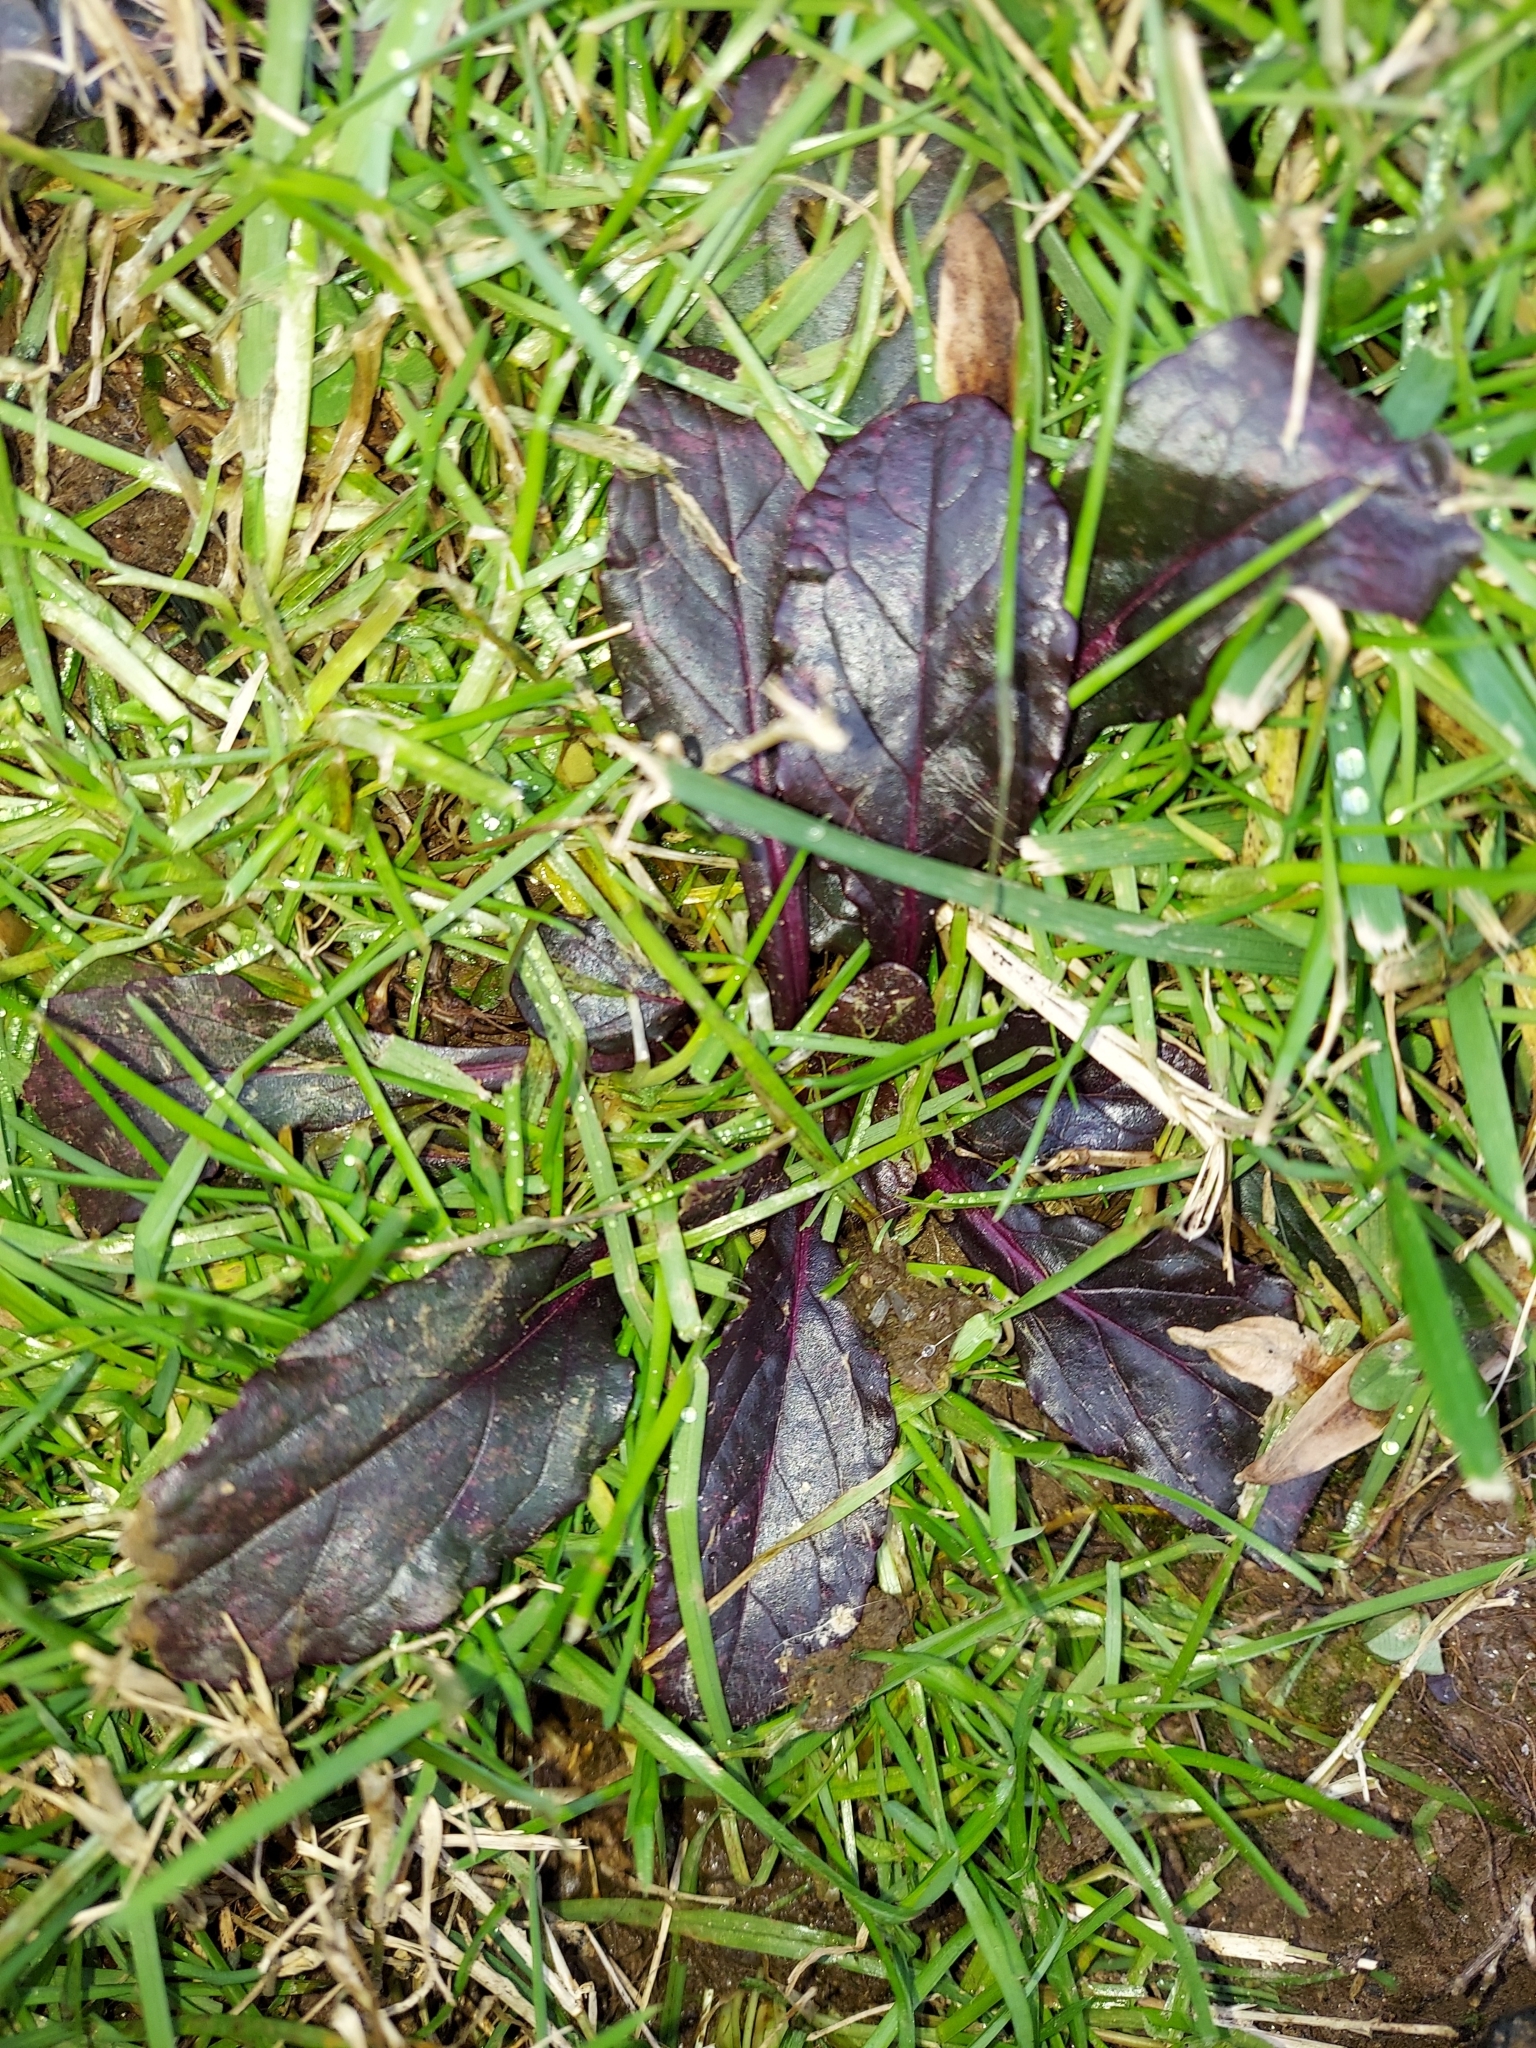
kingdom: Plantae
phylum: Tracheophyta
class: Magnoliopsida
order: Lamiales
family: Lamiaceae
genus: Ajuga
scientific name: Ajuga reptans
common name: Bugle
